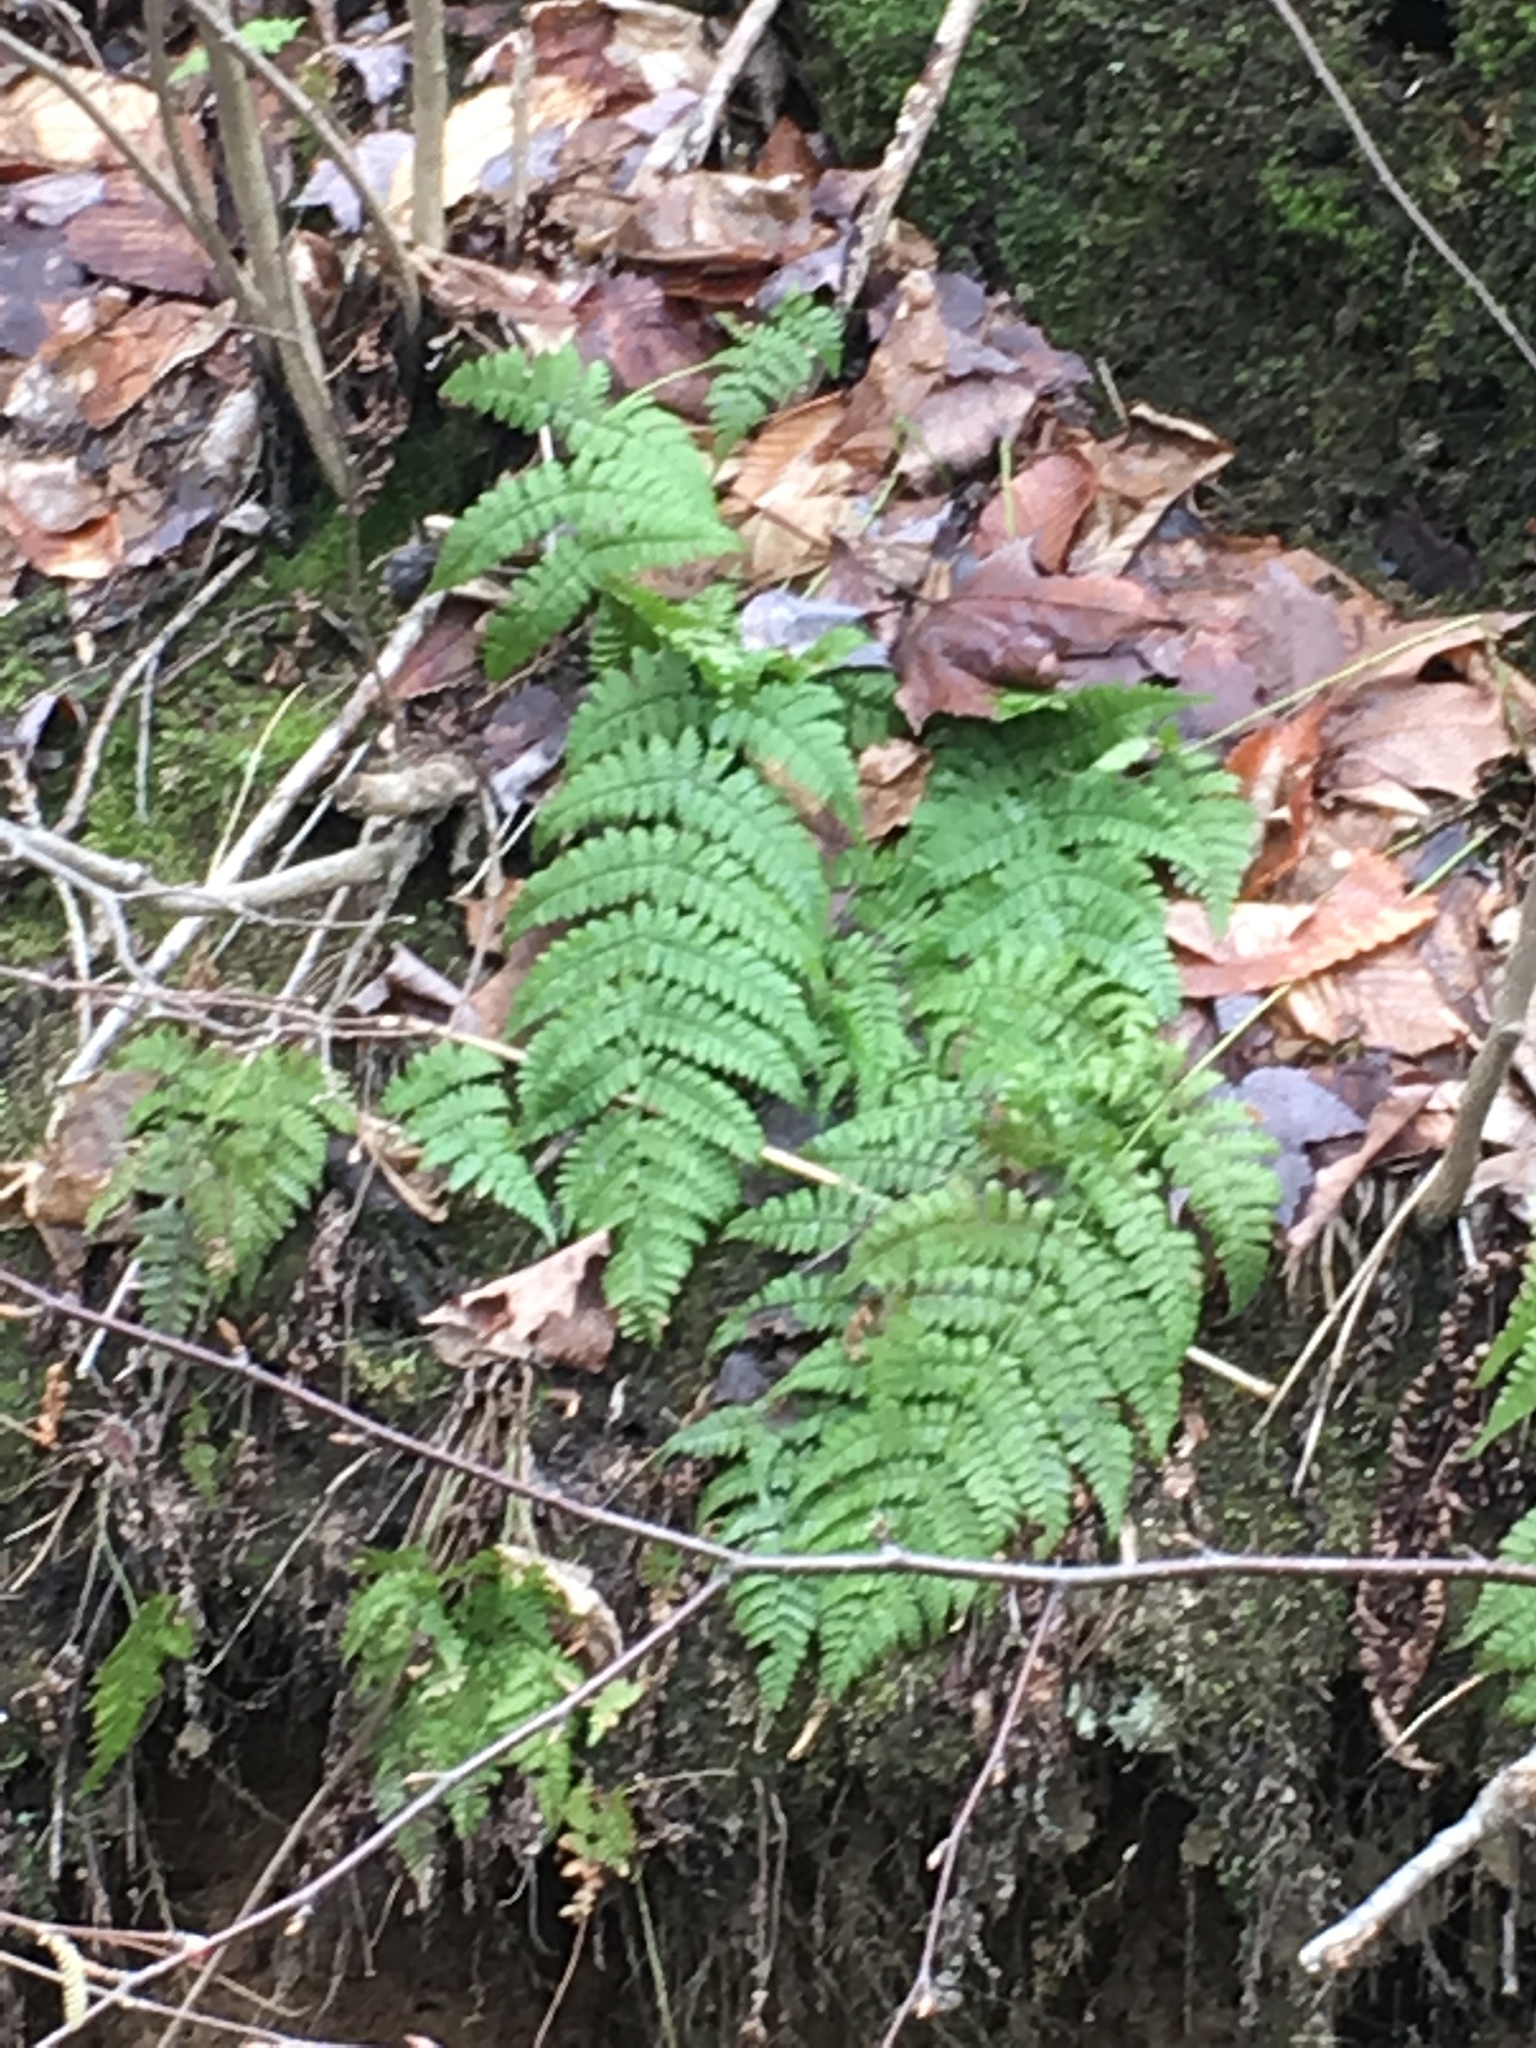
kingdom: Plantae
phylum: Tracheophyta
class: Polypodiopsida
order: Polypodiales
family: Dryopteridaceae
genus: Dryopteris
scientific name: Dryopteris intermedia
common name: Evergreen wood fern
